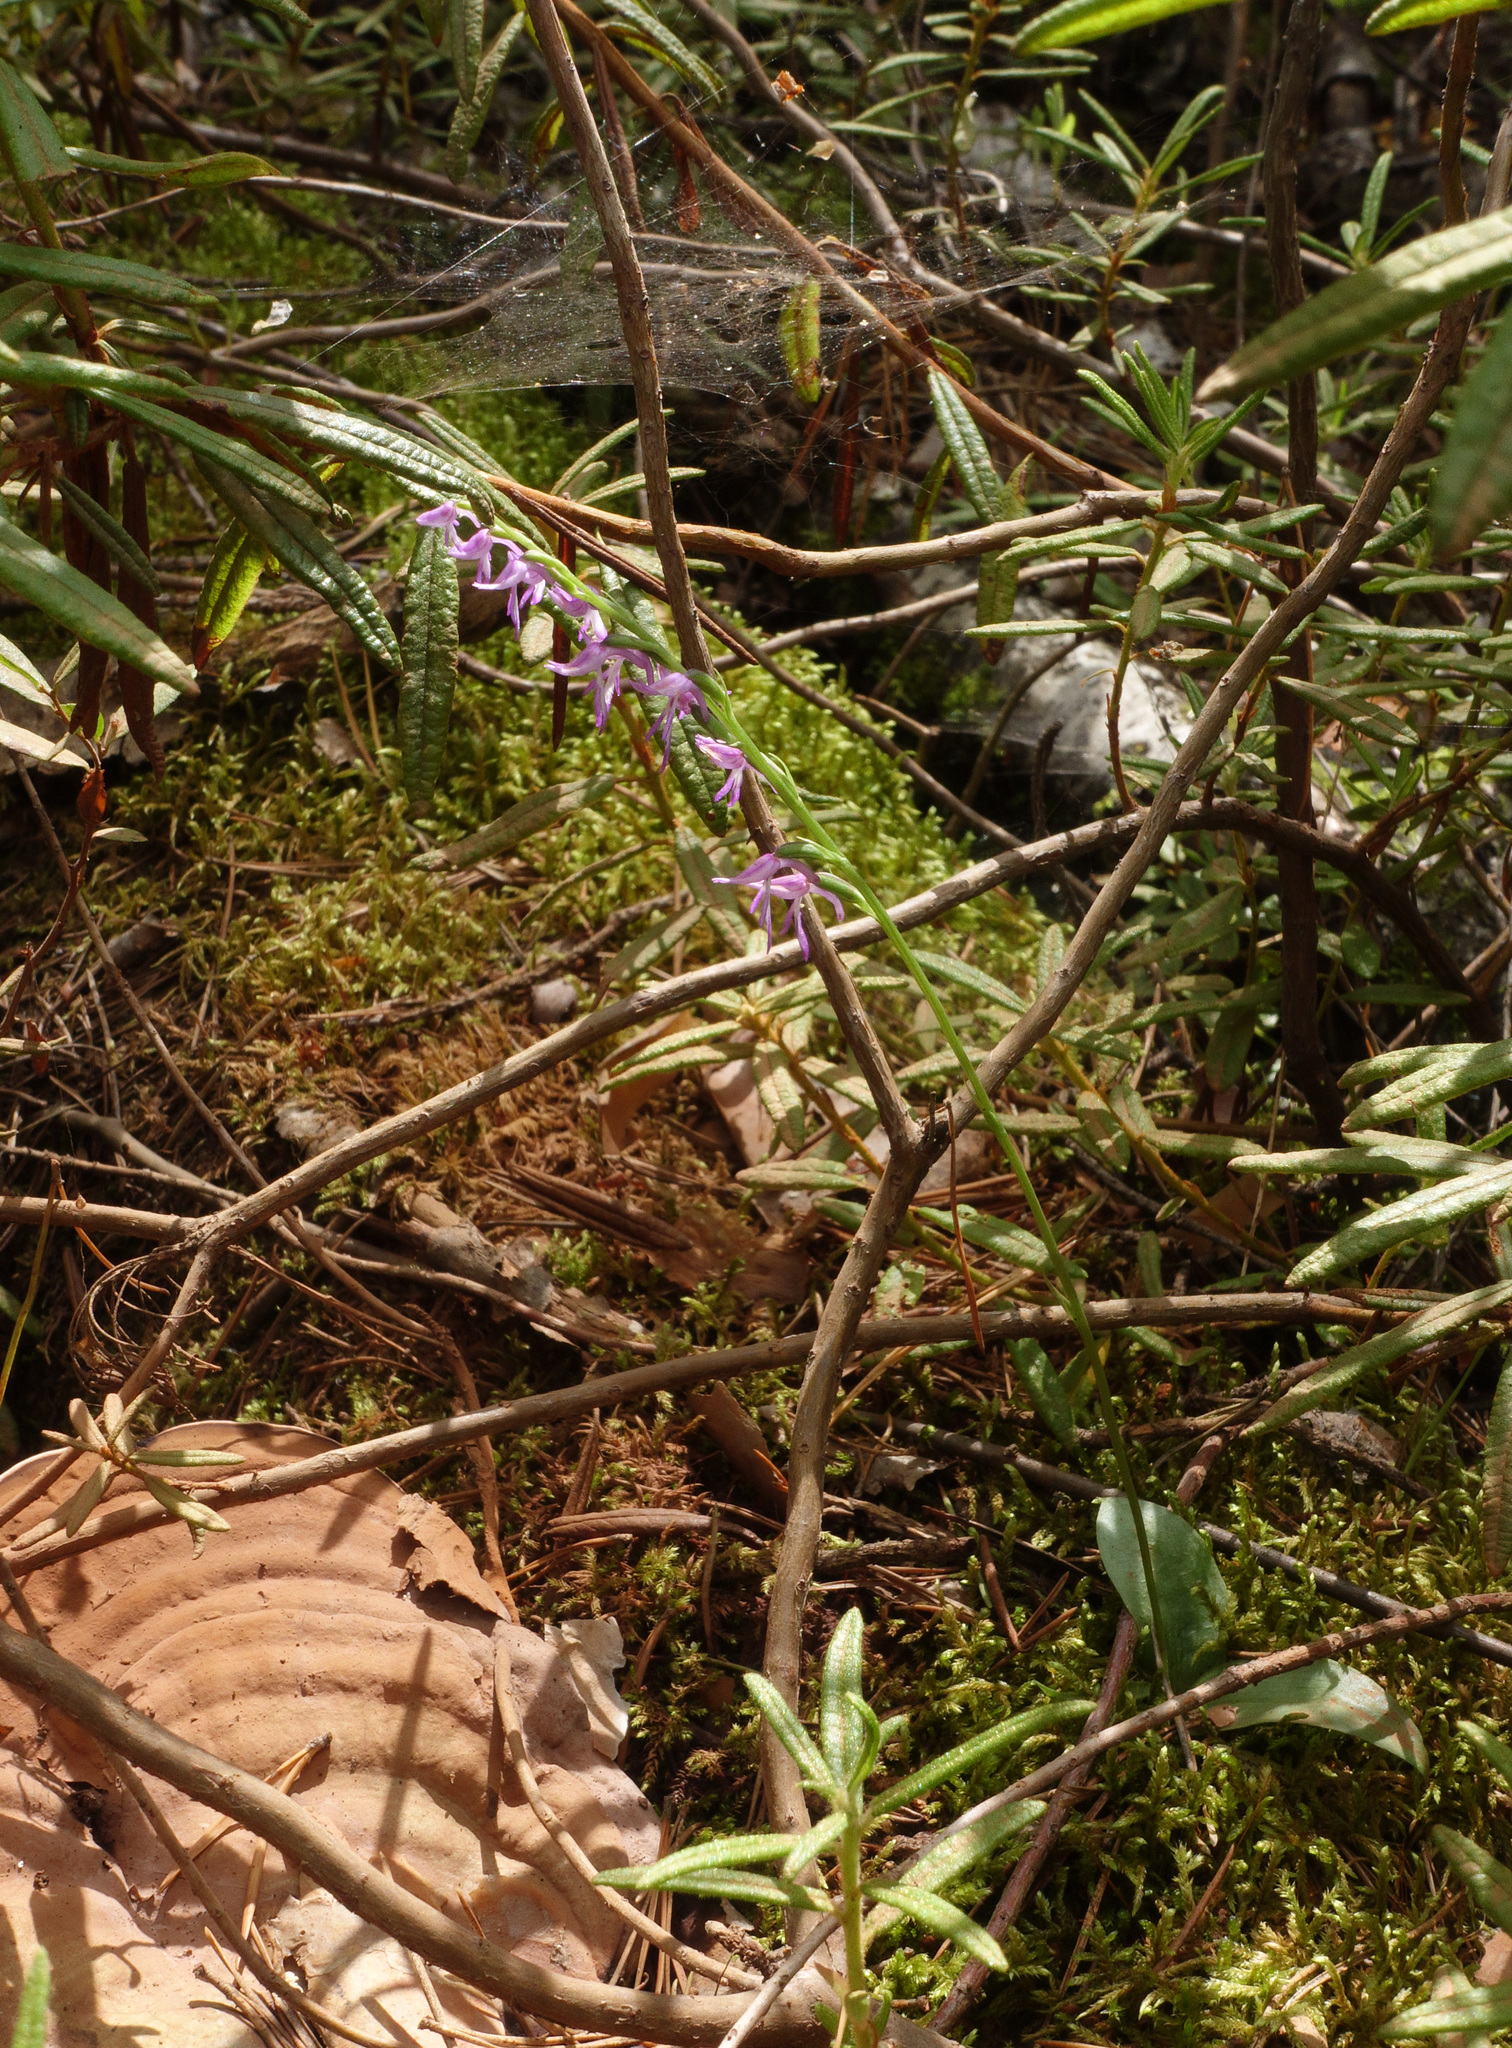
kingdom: Plantae
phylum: Tracheophyta
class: Liliopsida
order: Asparagales
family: Orchidaceae
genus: Hemipilia
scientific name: Hemipilia cucullata
